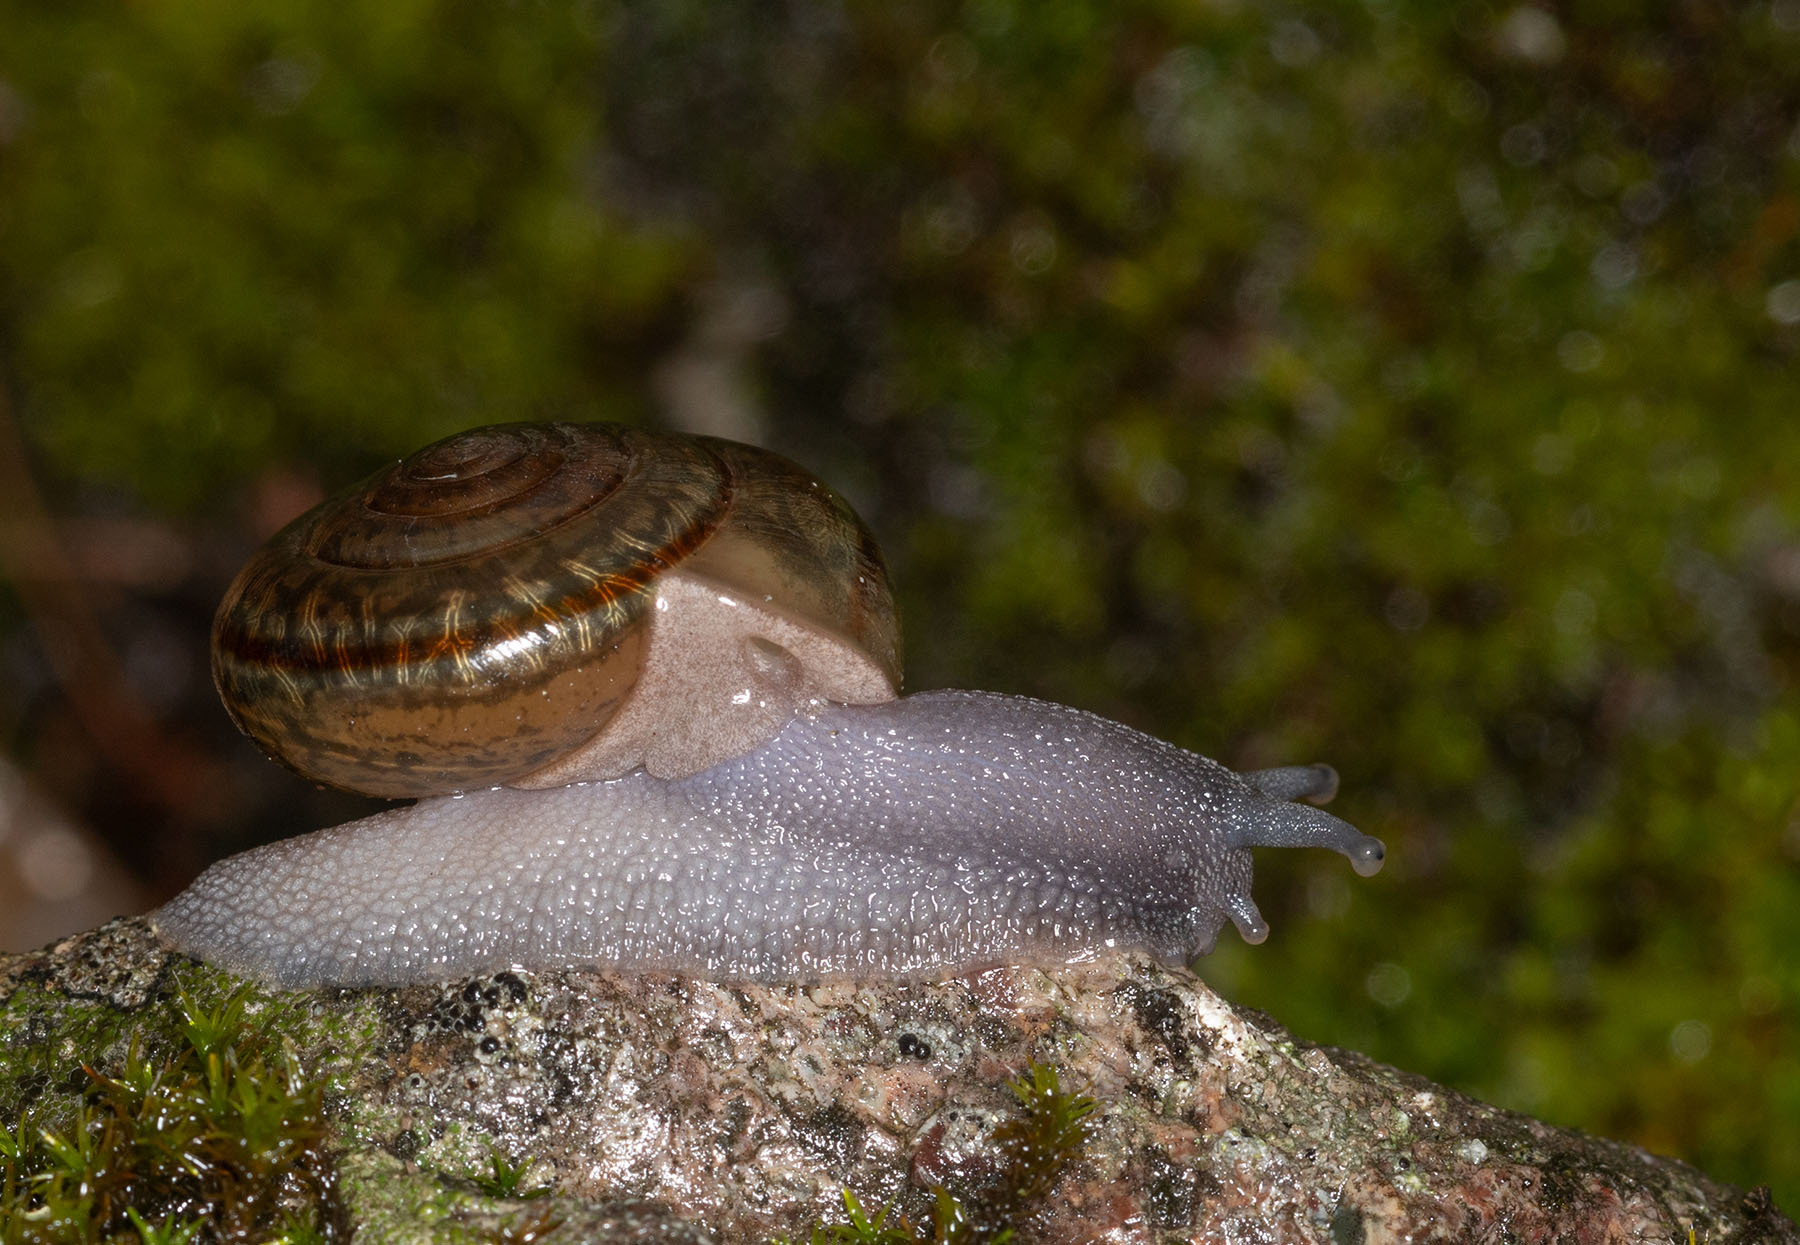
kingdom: Animalia
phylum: Mollusca
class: Gastropoda
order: Stylommatophora
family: Xanthonychidae
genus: Helminthoglypta
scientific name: Helminthoglypta benitoensis
